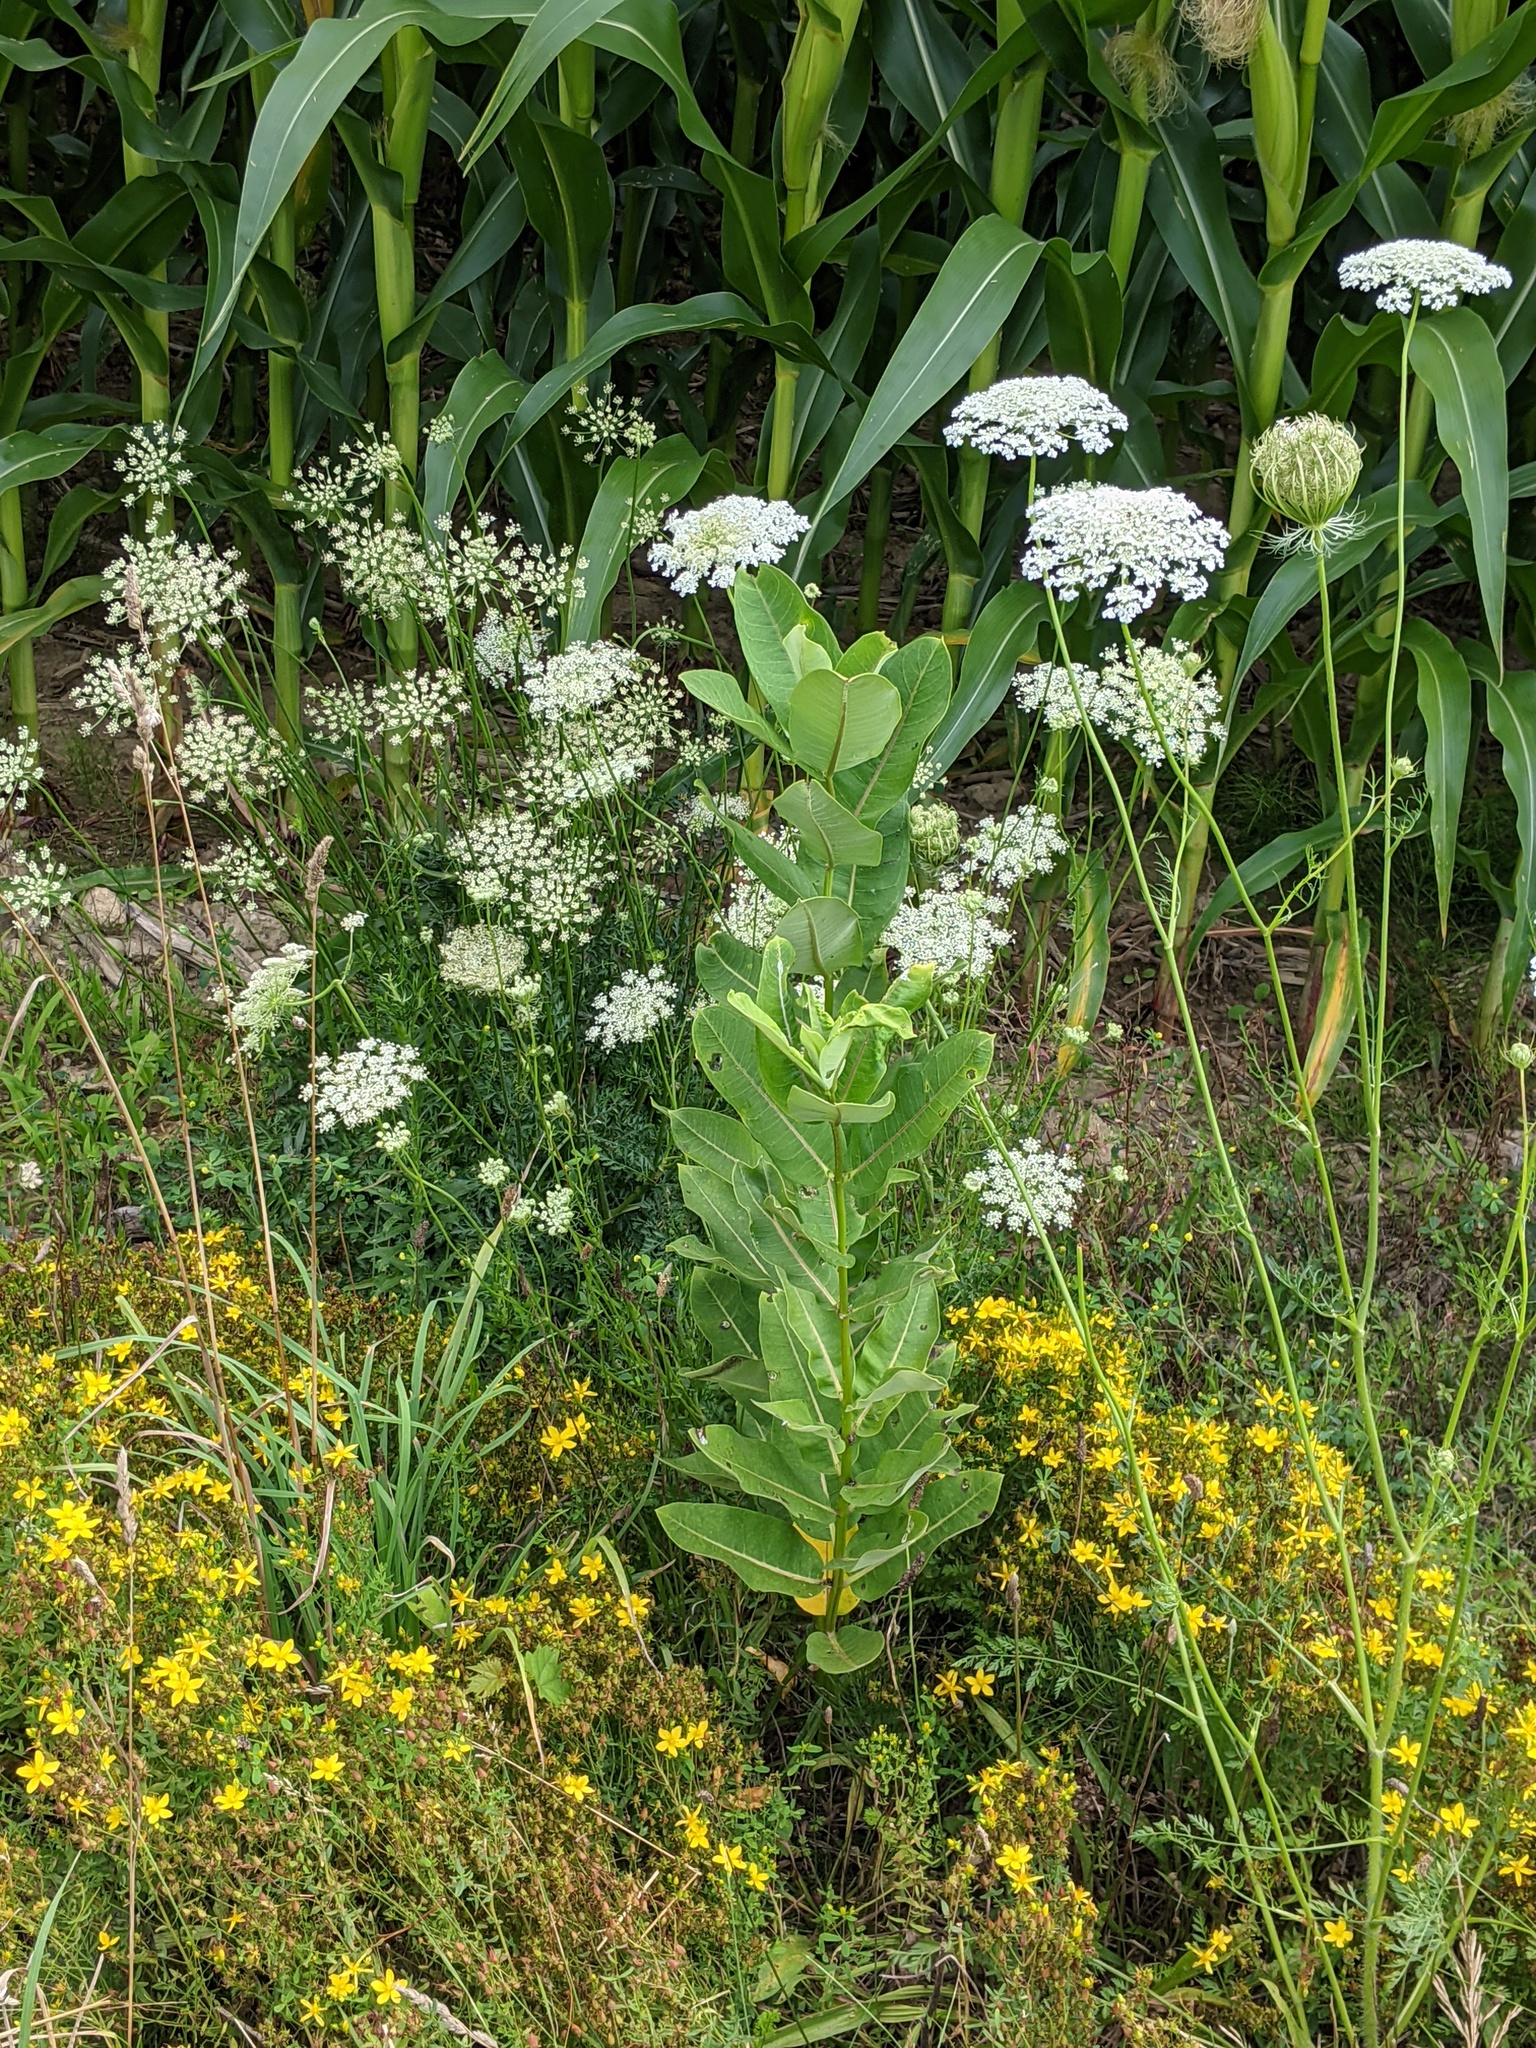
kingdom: Plantae
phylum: Tracheophyta
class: Magnoliopsida
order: Gentianales
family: Apocynaceae
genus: Asclepias
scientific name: Asclepias syriaca
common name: Common milkweed
